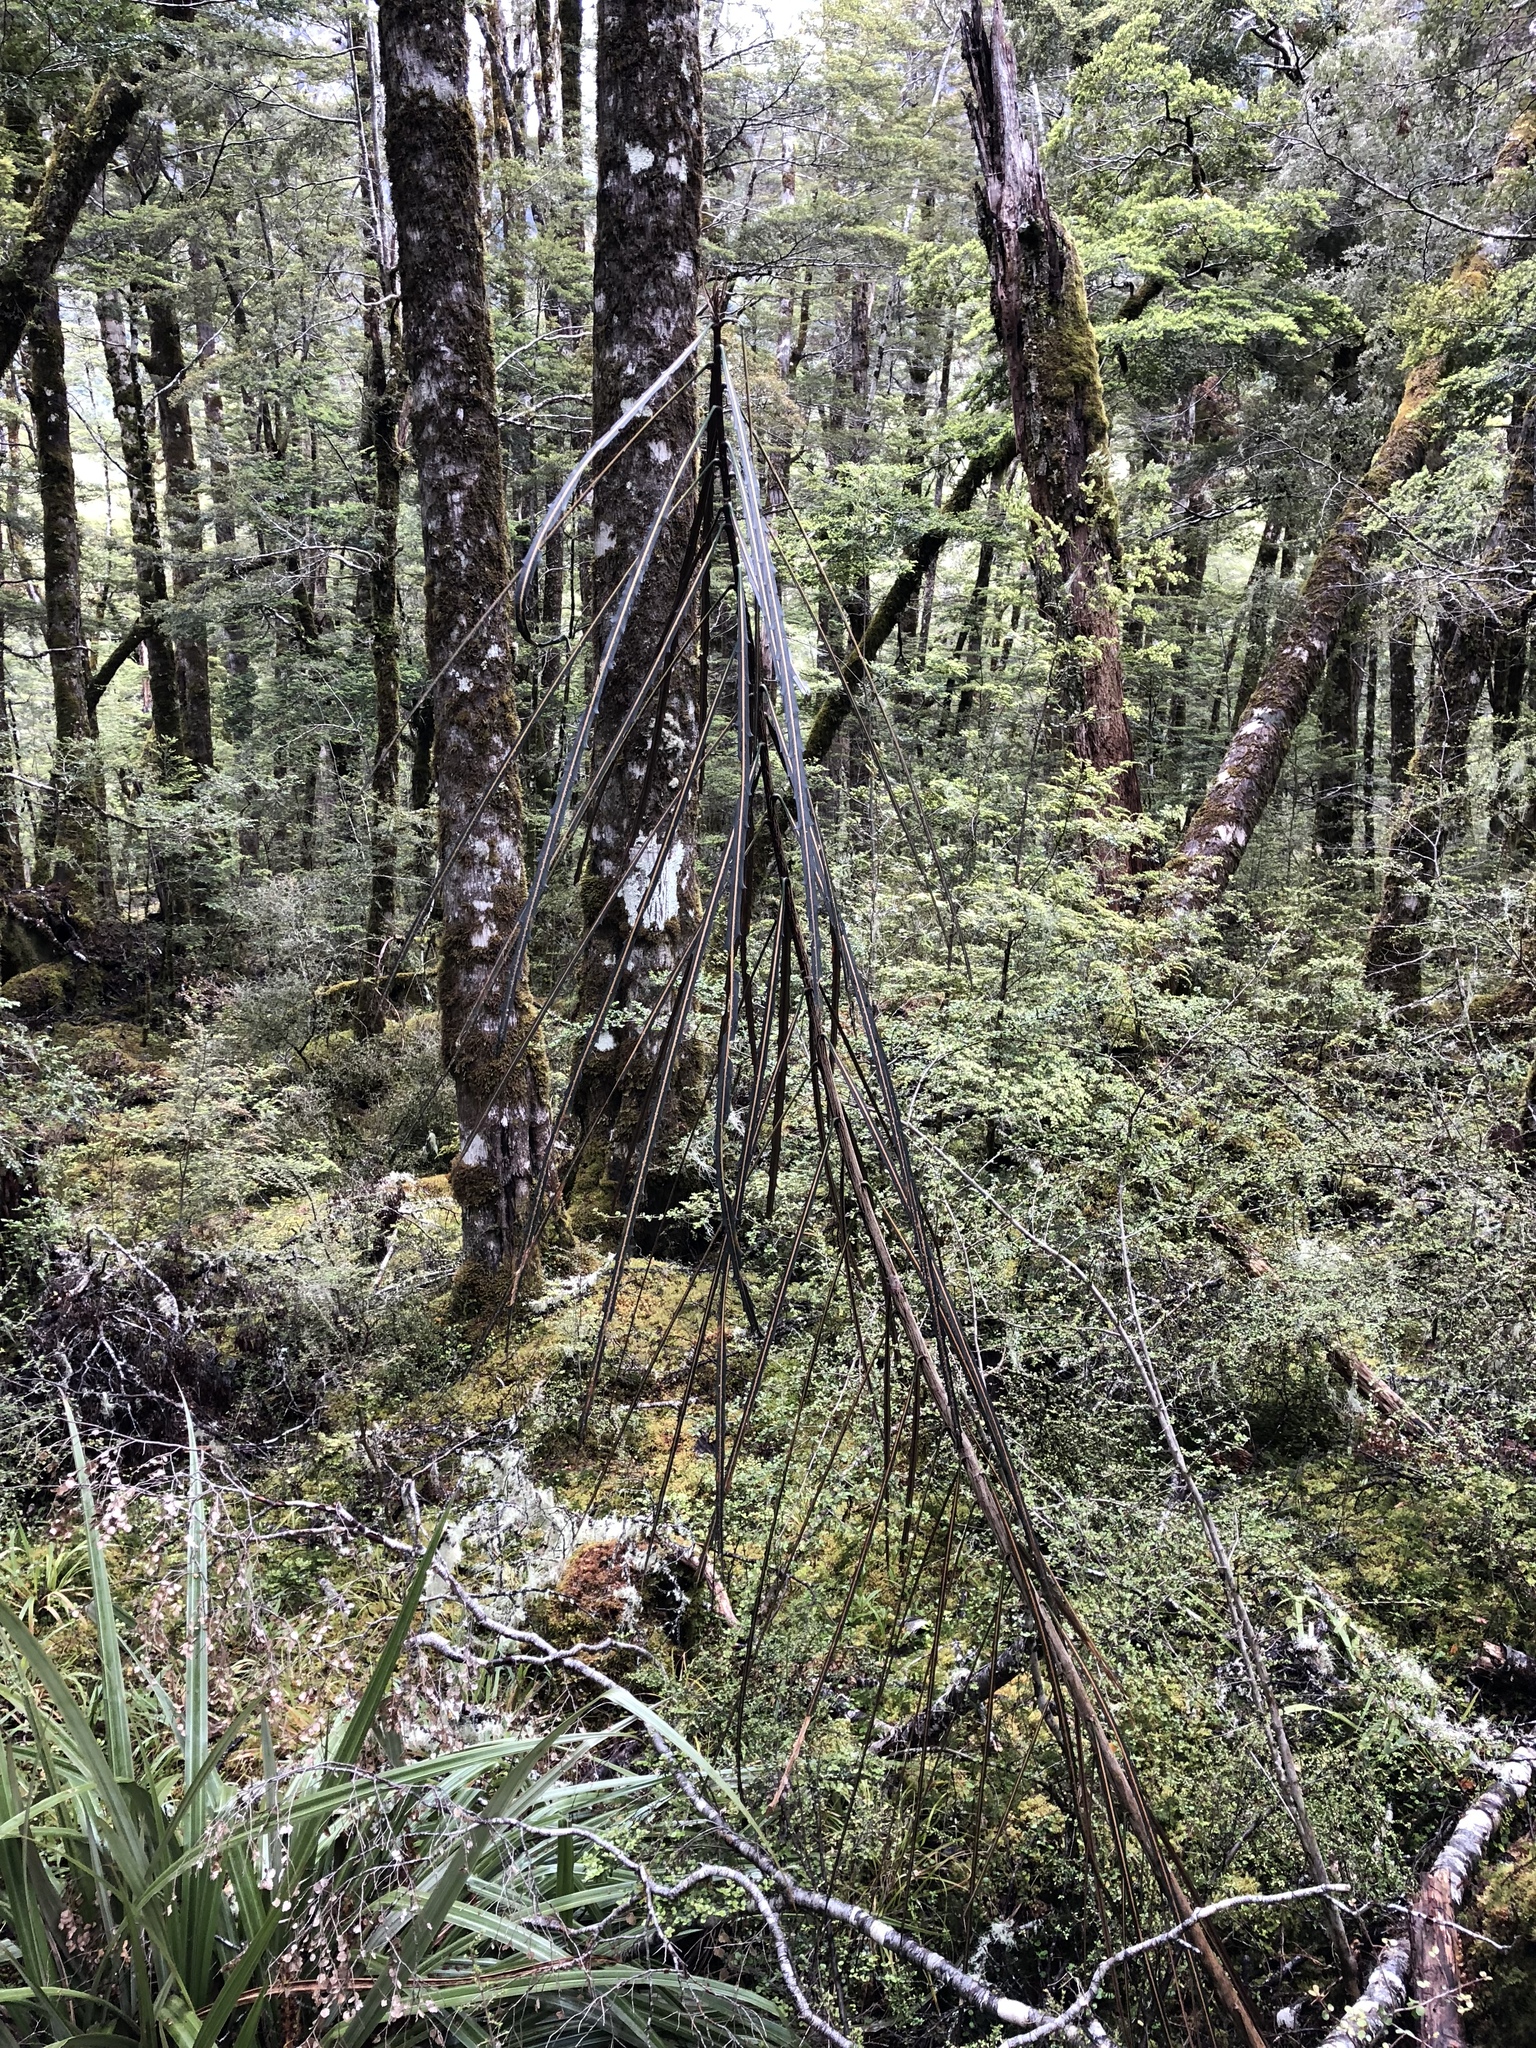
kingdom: Plantae
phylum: Tracheophyta
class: Magnoliopsida
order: Apiales
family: Araliaceae
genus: Pseudopanax
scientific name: Pseudopanax crassifolius
